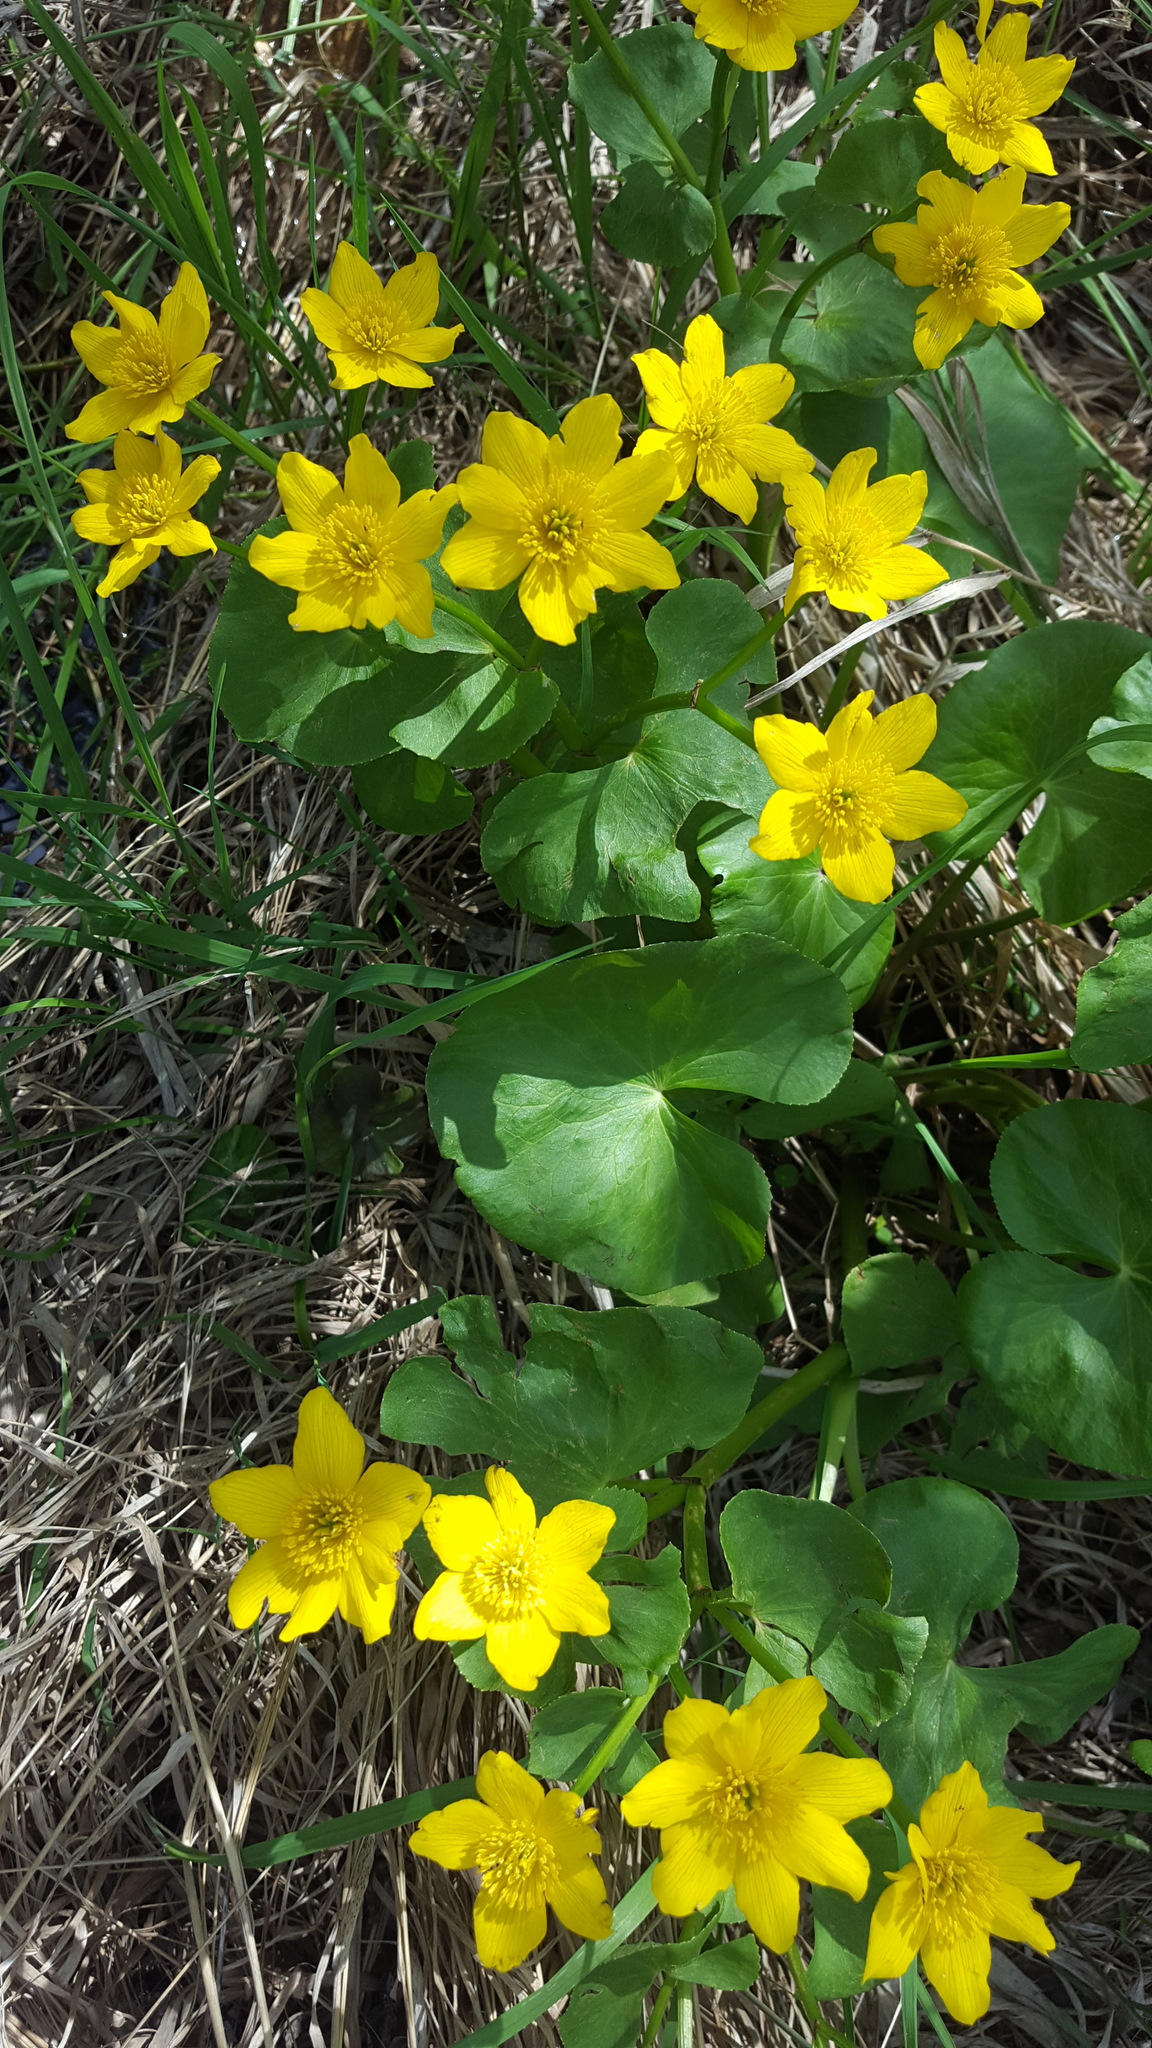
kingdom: Plantae
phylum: Tracheophyta
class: Magnoliopsida
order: Ranunculales
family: Ranunculaceae
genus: Caltha
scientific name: Caltha palustris
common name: Marsh marigold
